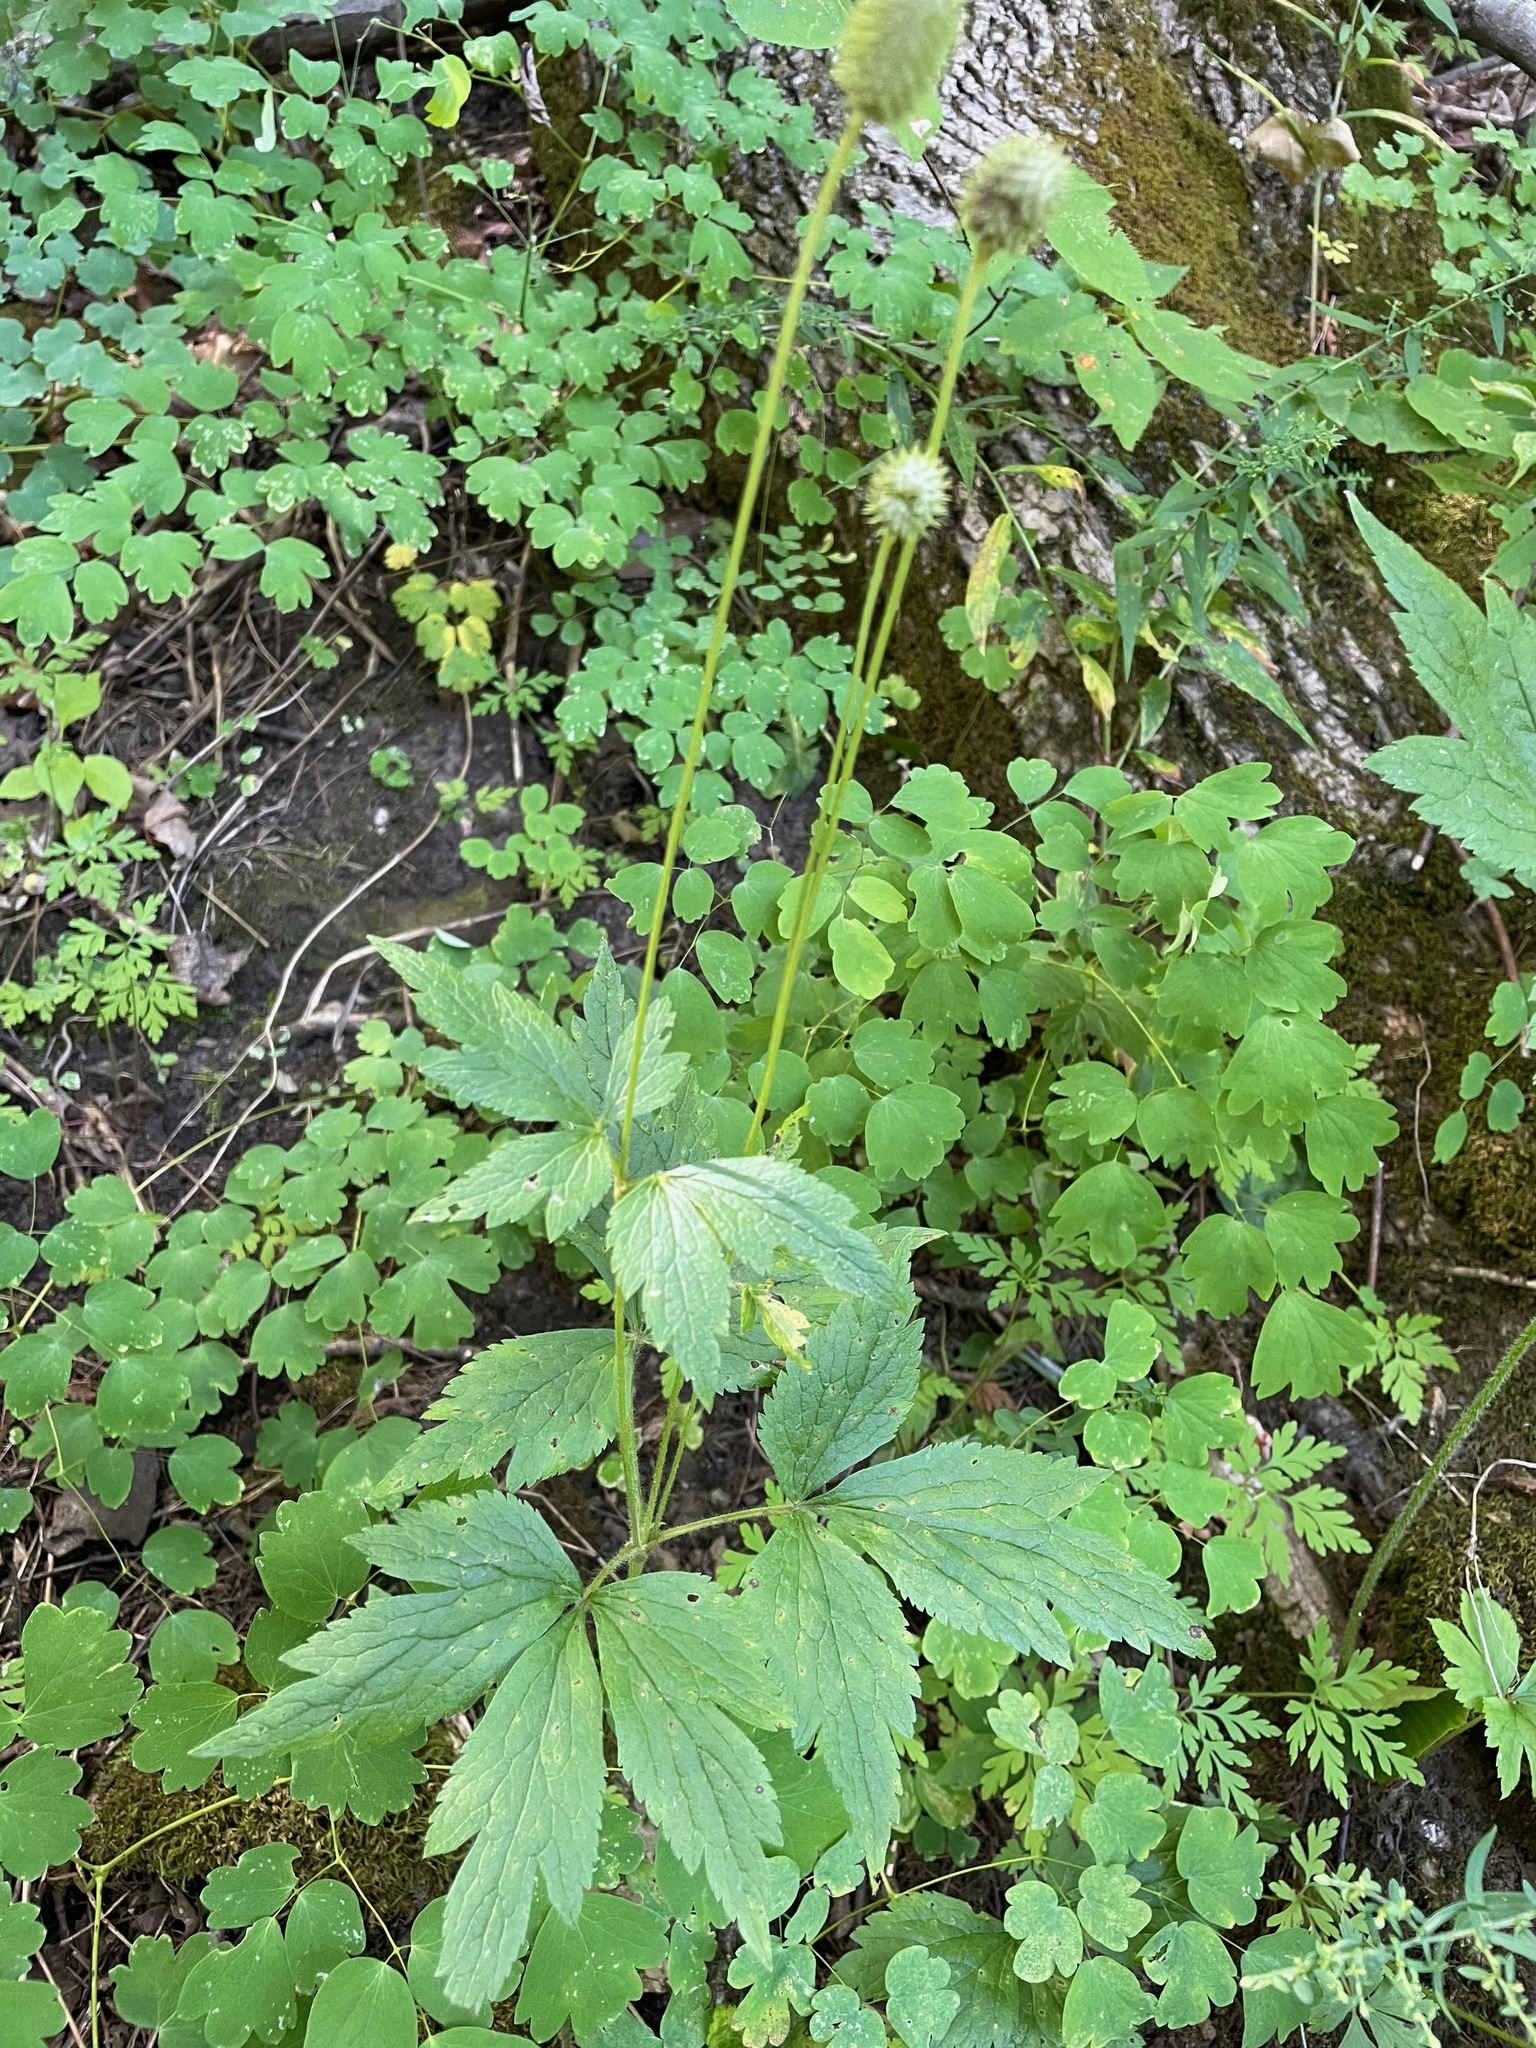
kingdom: Plantae
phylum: Tracheophyta
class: Magnoliopsida
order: Ranunculales
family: Ranunculaceae
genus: Anemone
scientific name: Anemone virginiana
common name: Tall anemone
